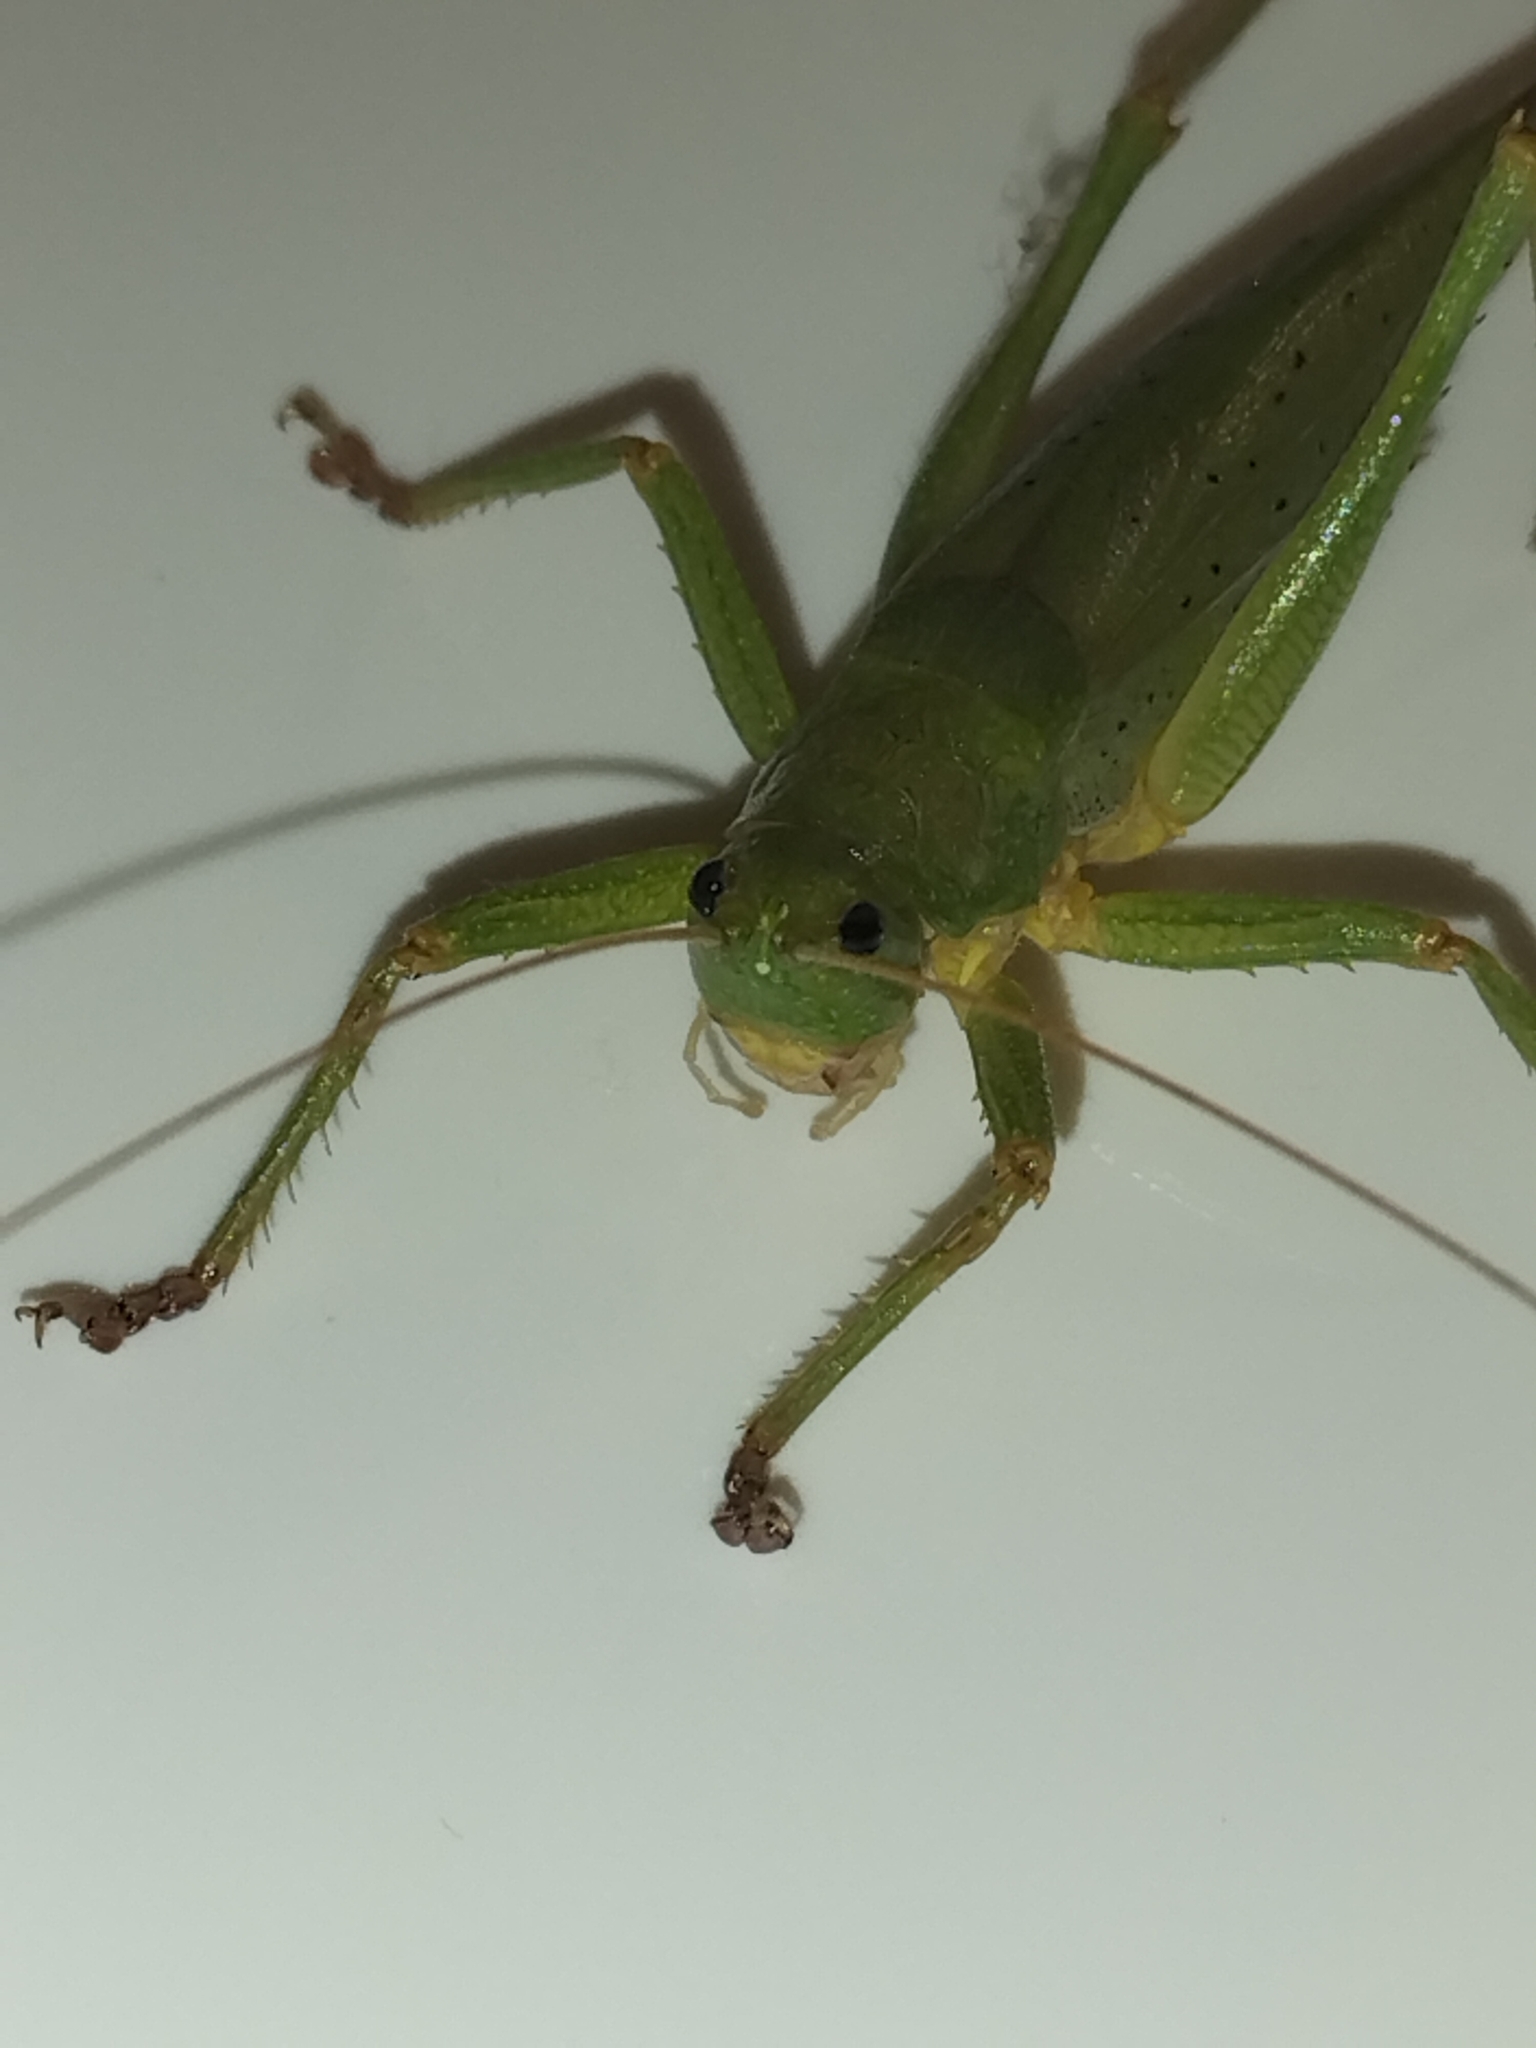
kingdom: Animalia
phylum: Arthropoda
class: Insecta
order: Orthoptera
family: Tettigoniidae
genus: Austrosalomona
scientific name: Austrosalomona destructor
